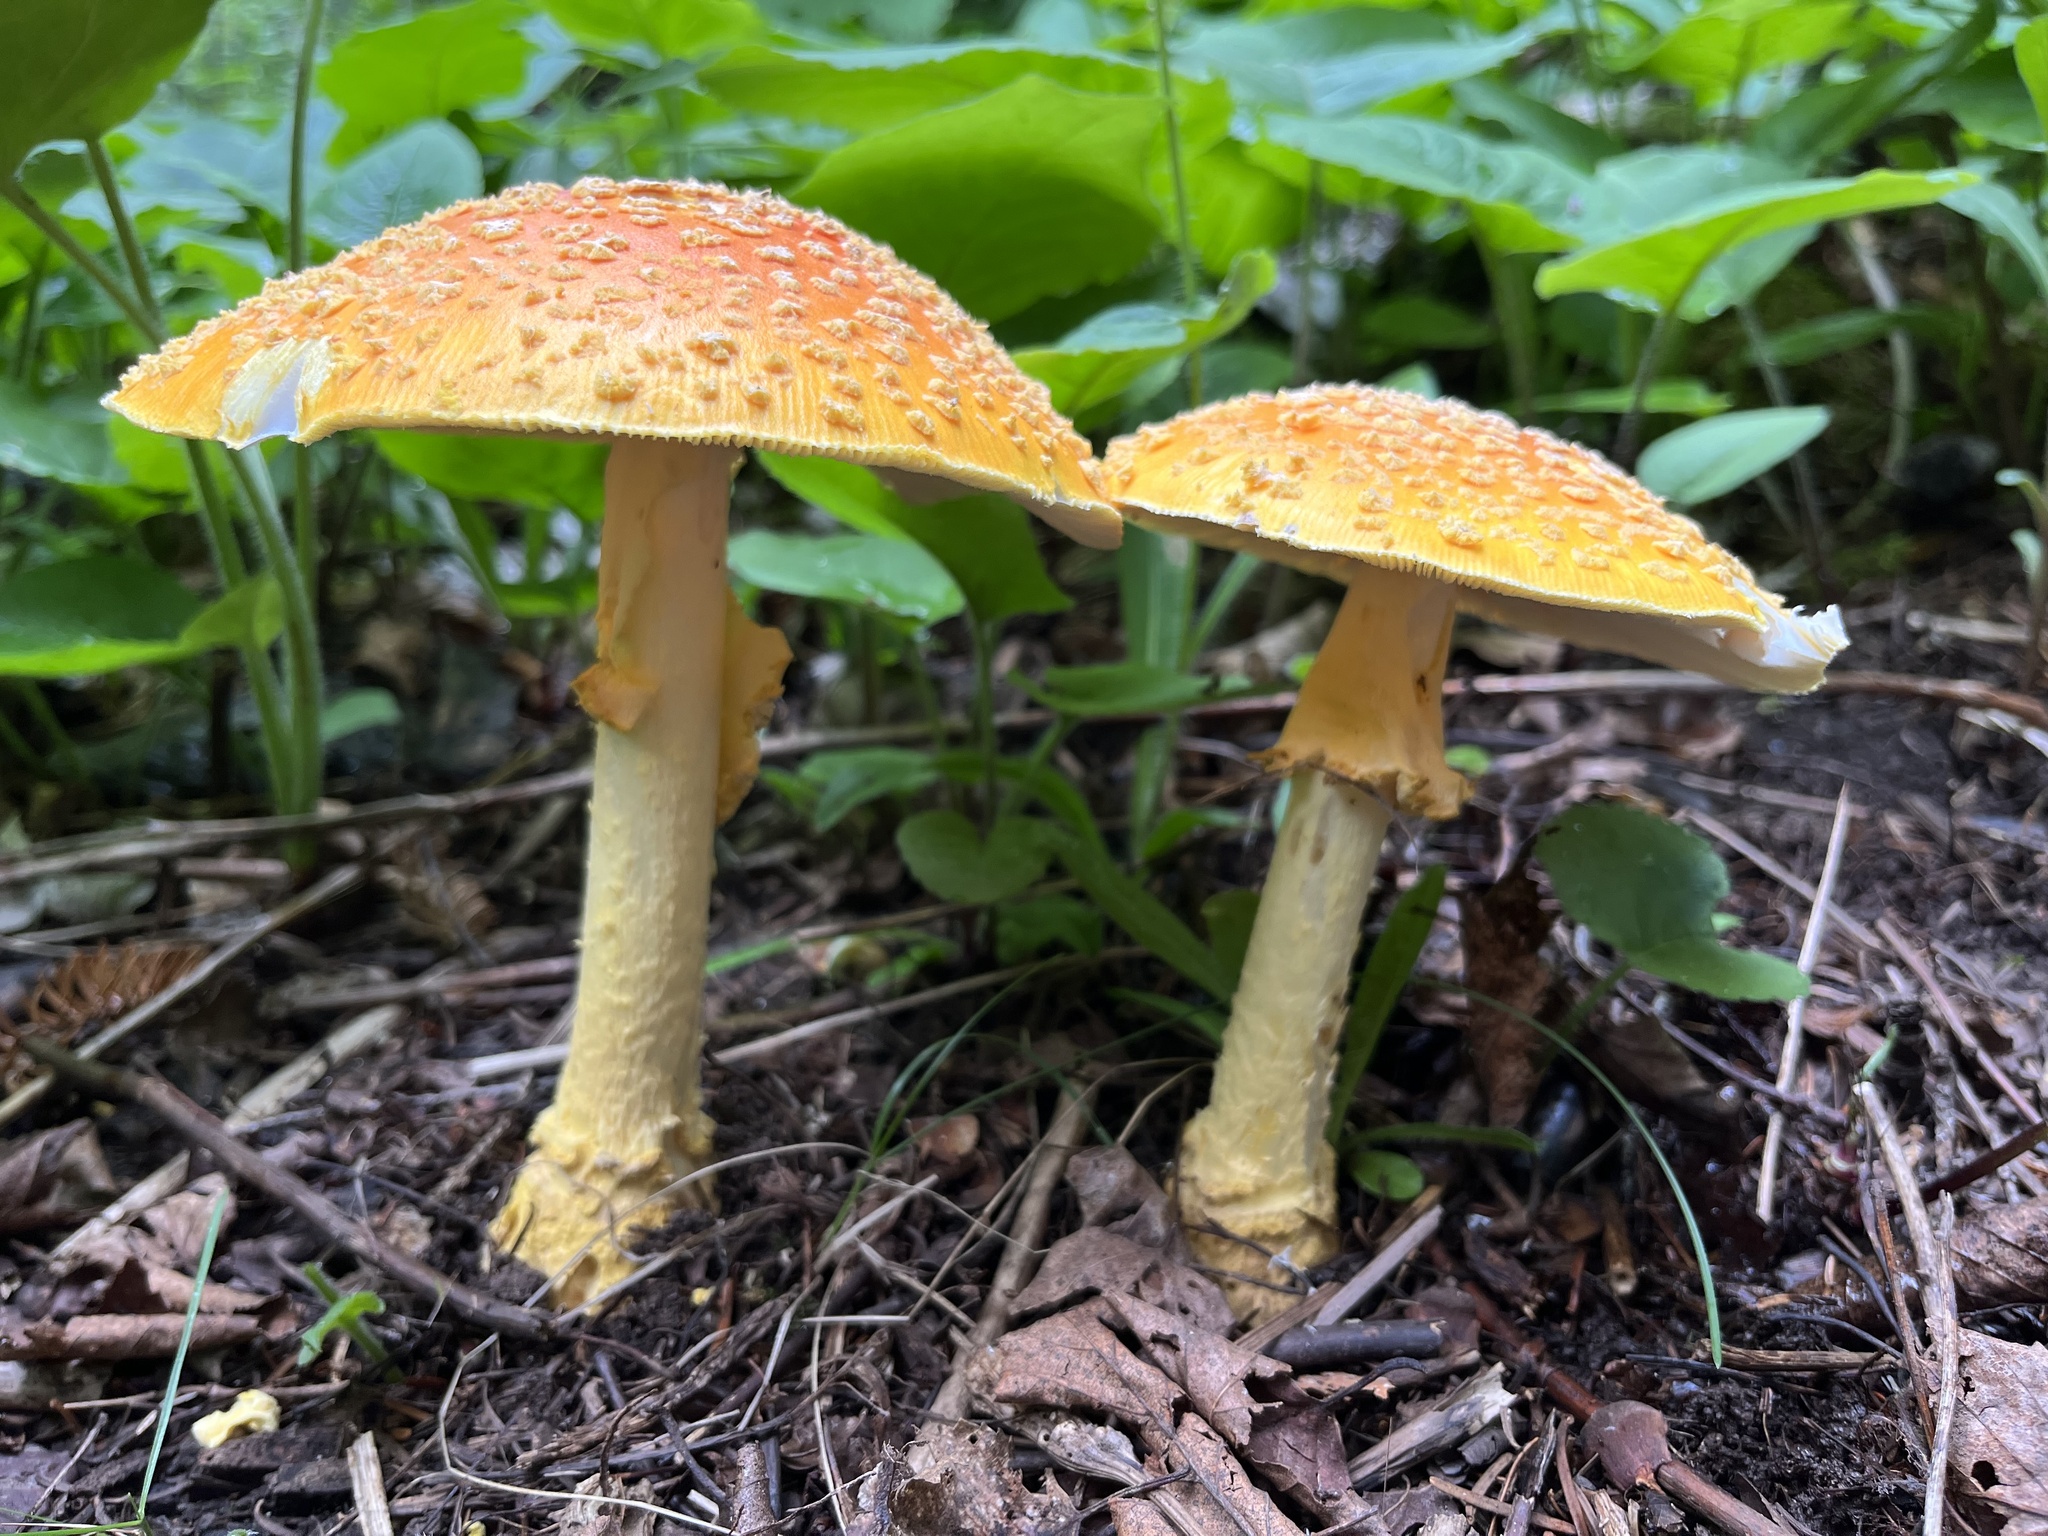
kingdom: Fungi
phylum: Basidiomycota
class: Agaricomycetes
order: Agaricales
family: Amanitaceae
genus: Amanita
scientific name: Amanita muscaria
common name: Fly agaric
